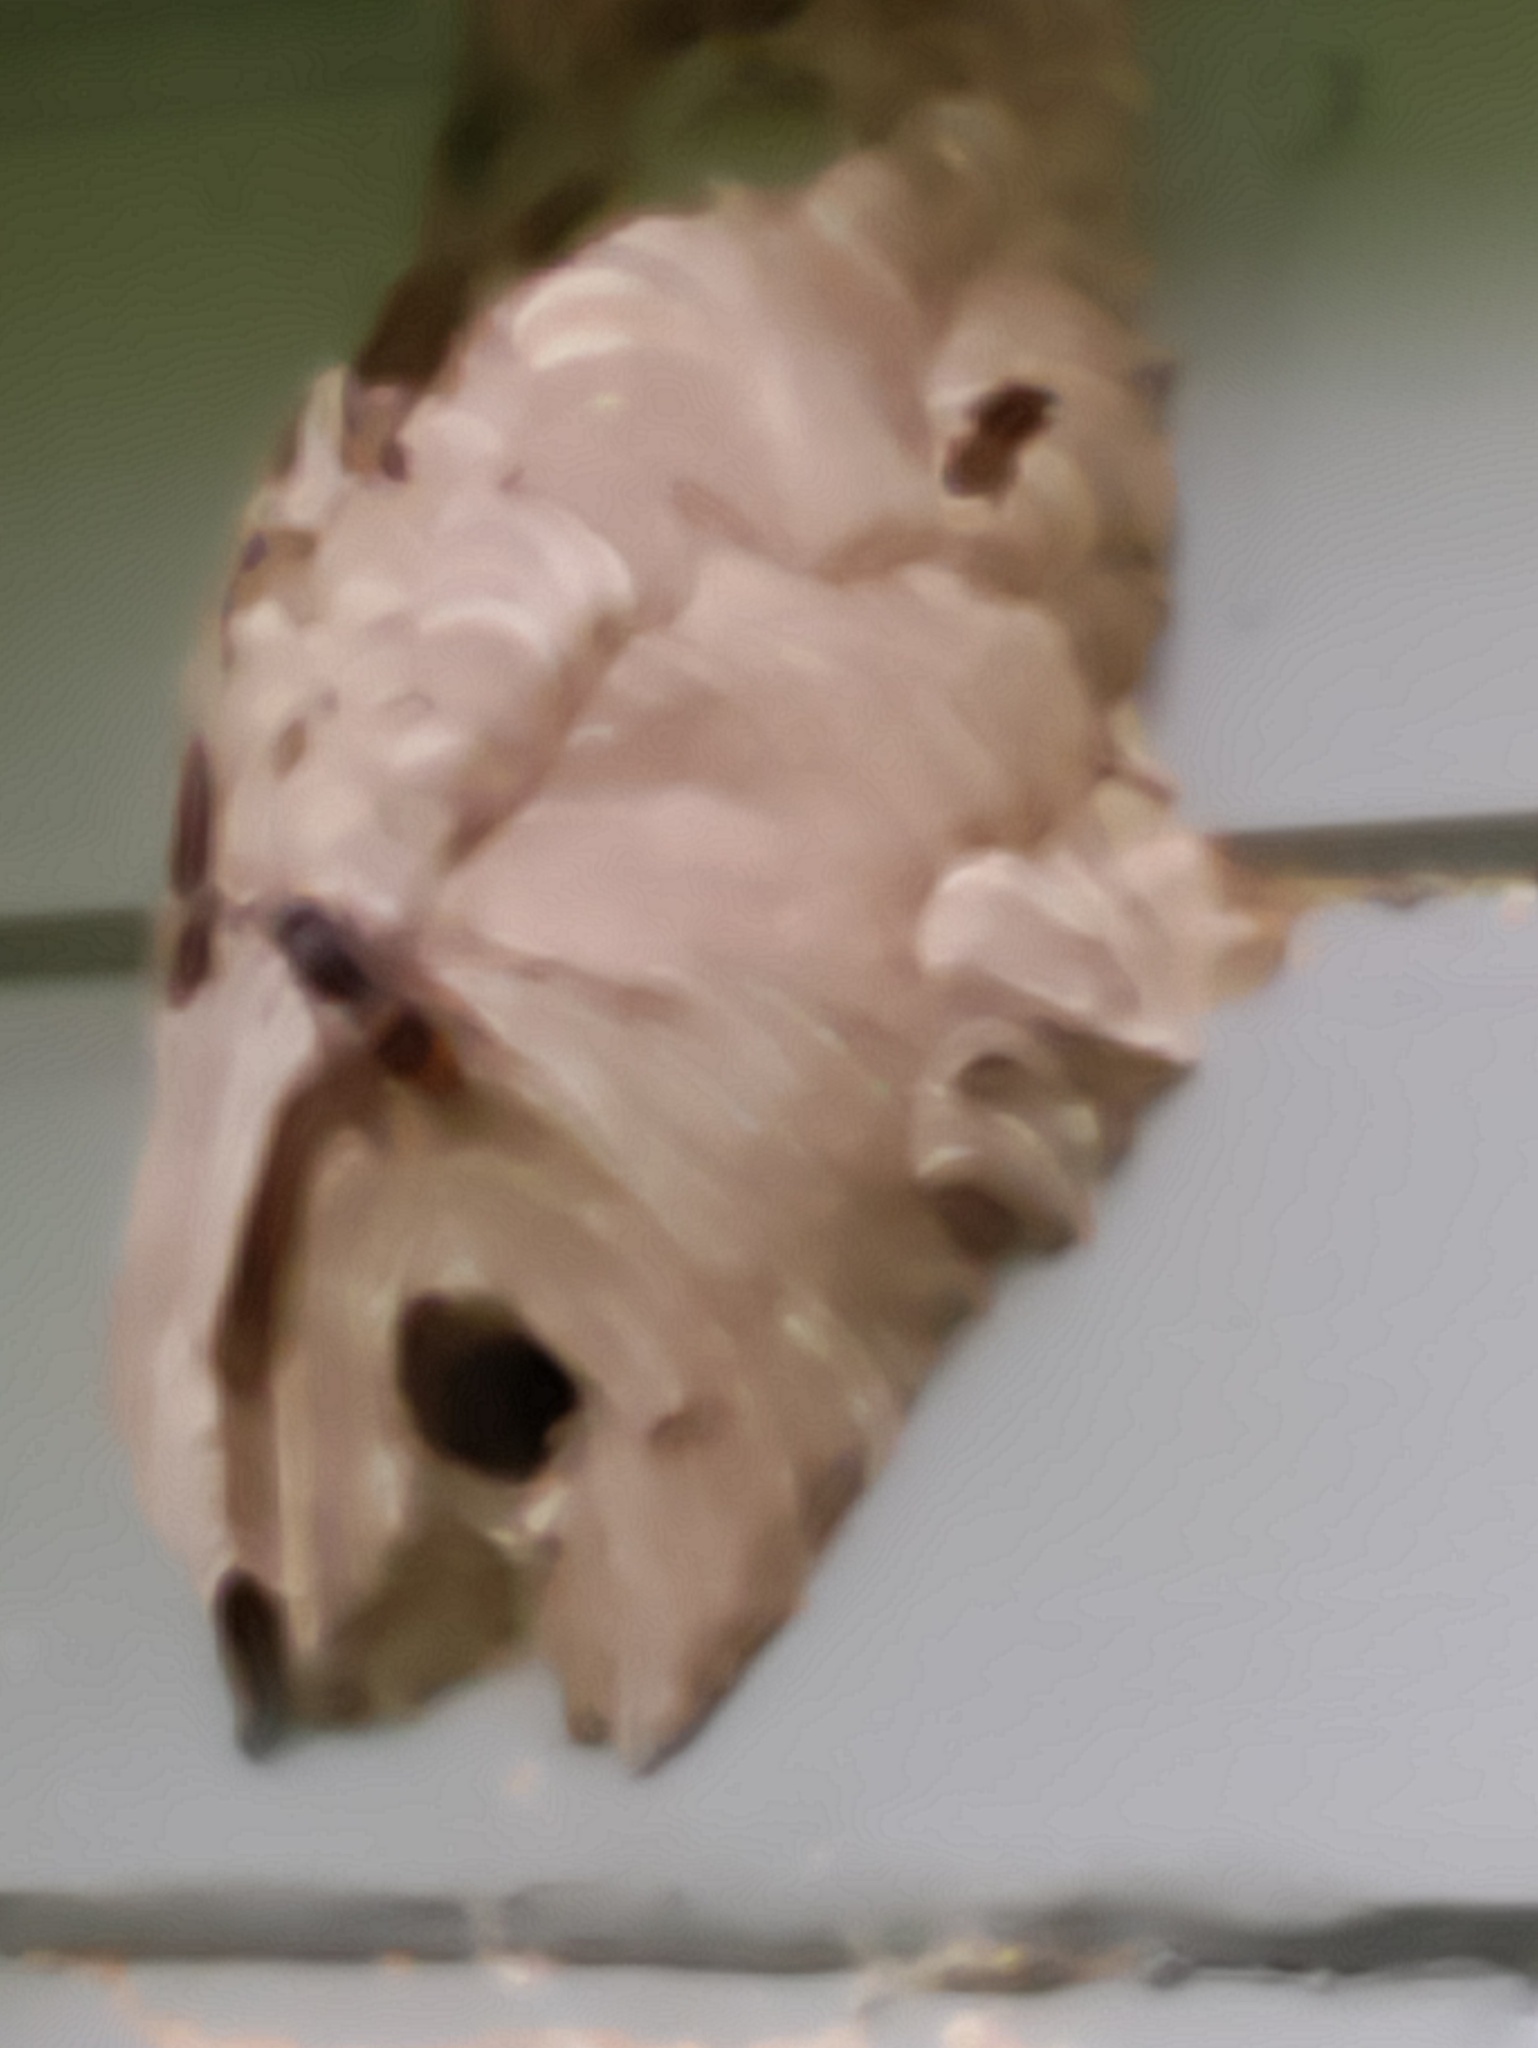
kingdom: Animalia
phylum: Arthropoda
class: Insecta
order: Hymenoptera
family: Vespidae
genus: Vespa
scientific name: Vespa velutina
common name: Asian hornet
